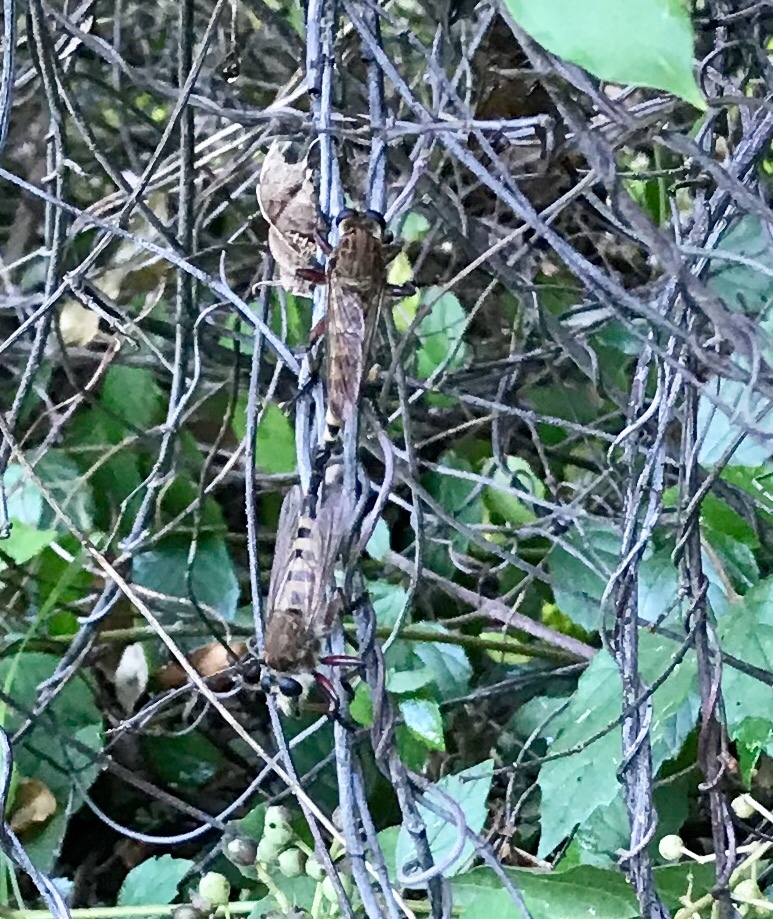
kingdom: Animalia
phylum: Arthropoda
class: Insecta
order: Diptera
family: Asilidae
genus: Promachus
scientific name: Promachus hinei
